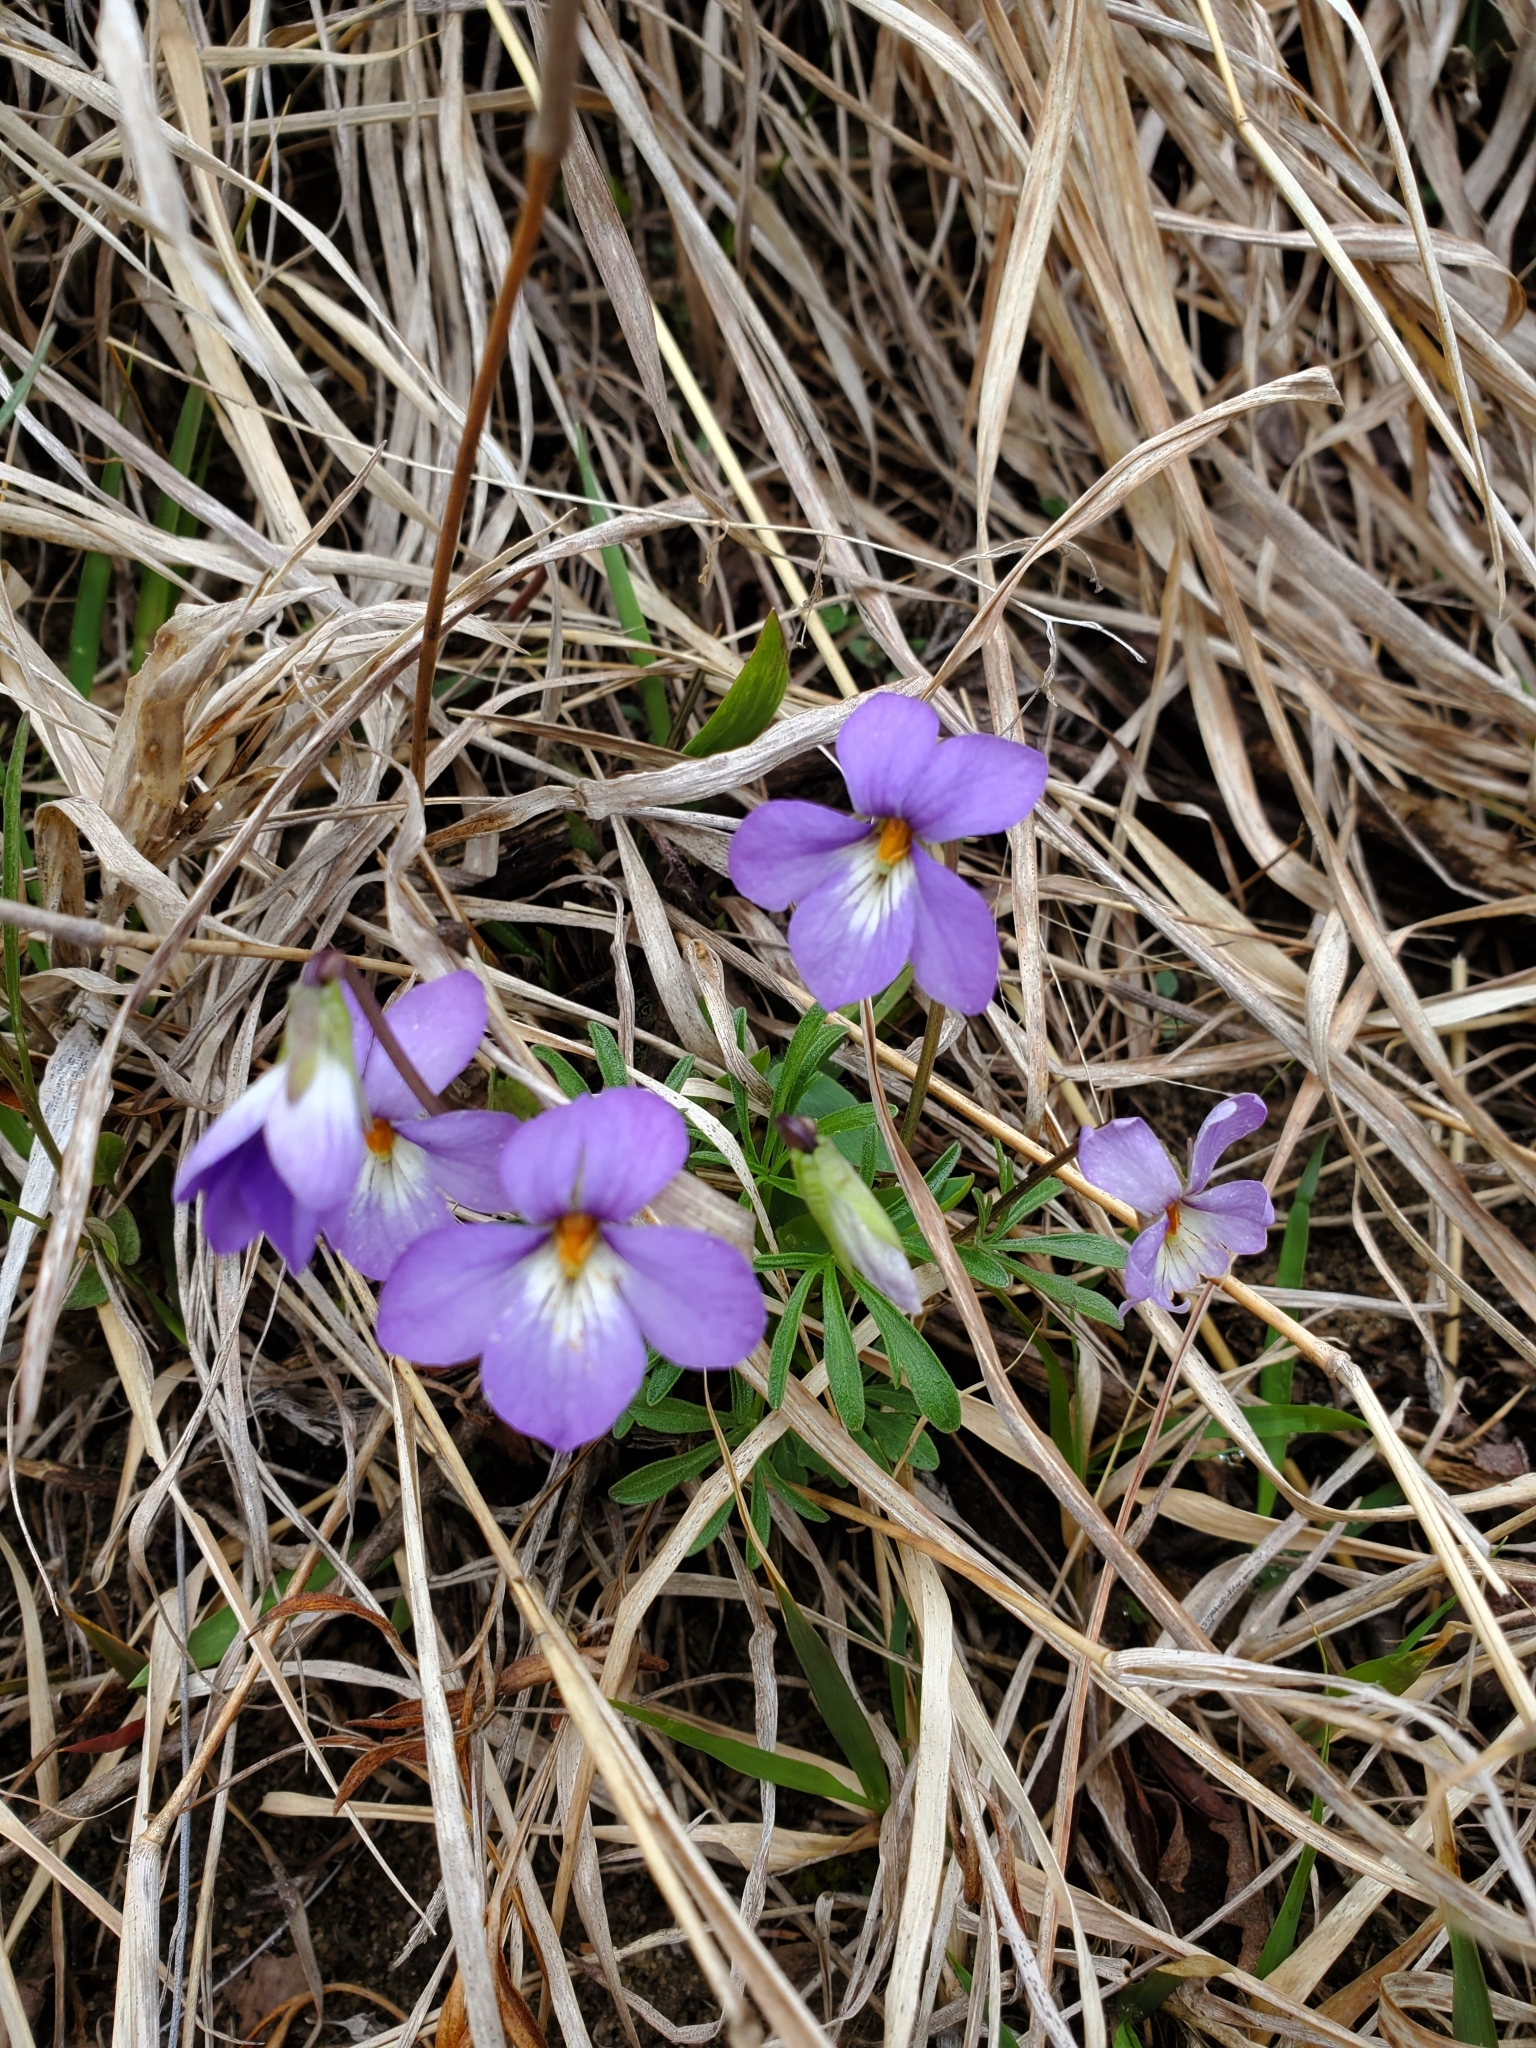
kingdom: Plantae
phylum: Tracheophyta
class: Magnoliopsida
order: Malpighiales
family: Violaceae
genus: Viola
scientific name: Viola pedata
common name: Pansy violet
